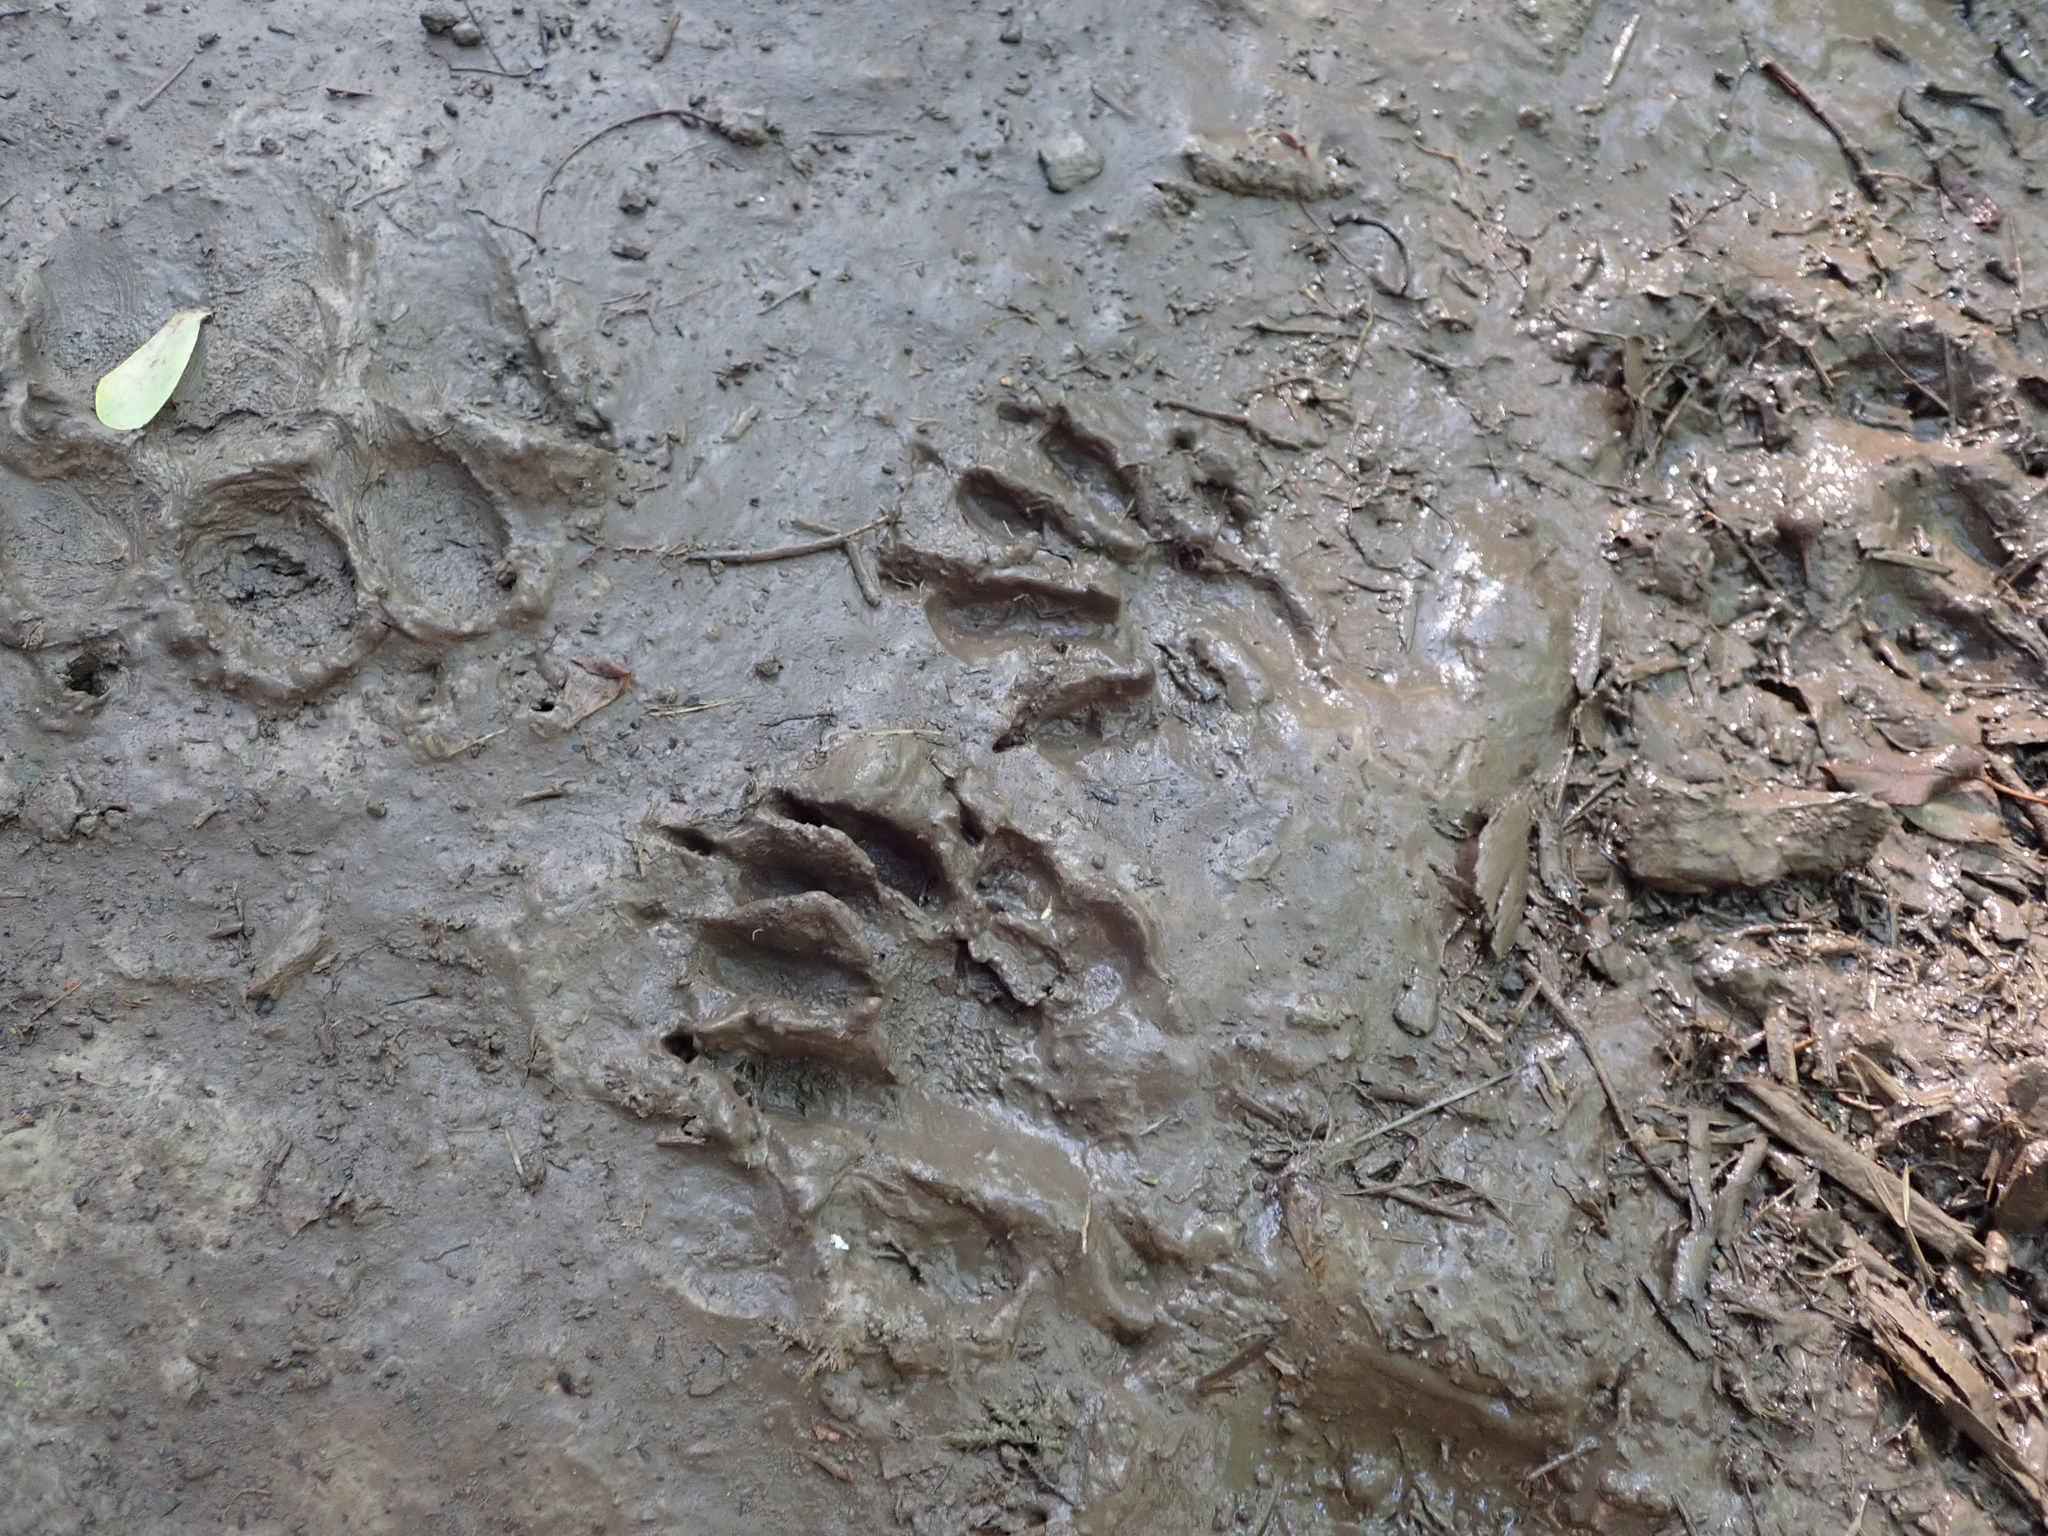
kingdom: Animalia
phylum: Chordata
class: Mammalia
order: Carnivora
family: Procyonidae
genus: Procyon
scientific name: Procyon lotor
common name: Raccoon
